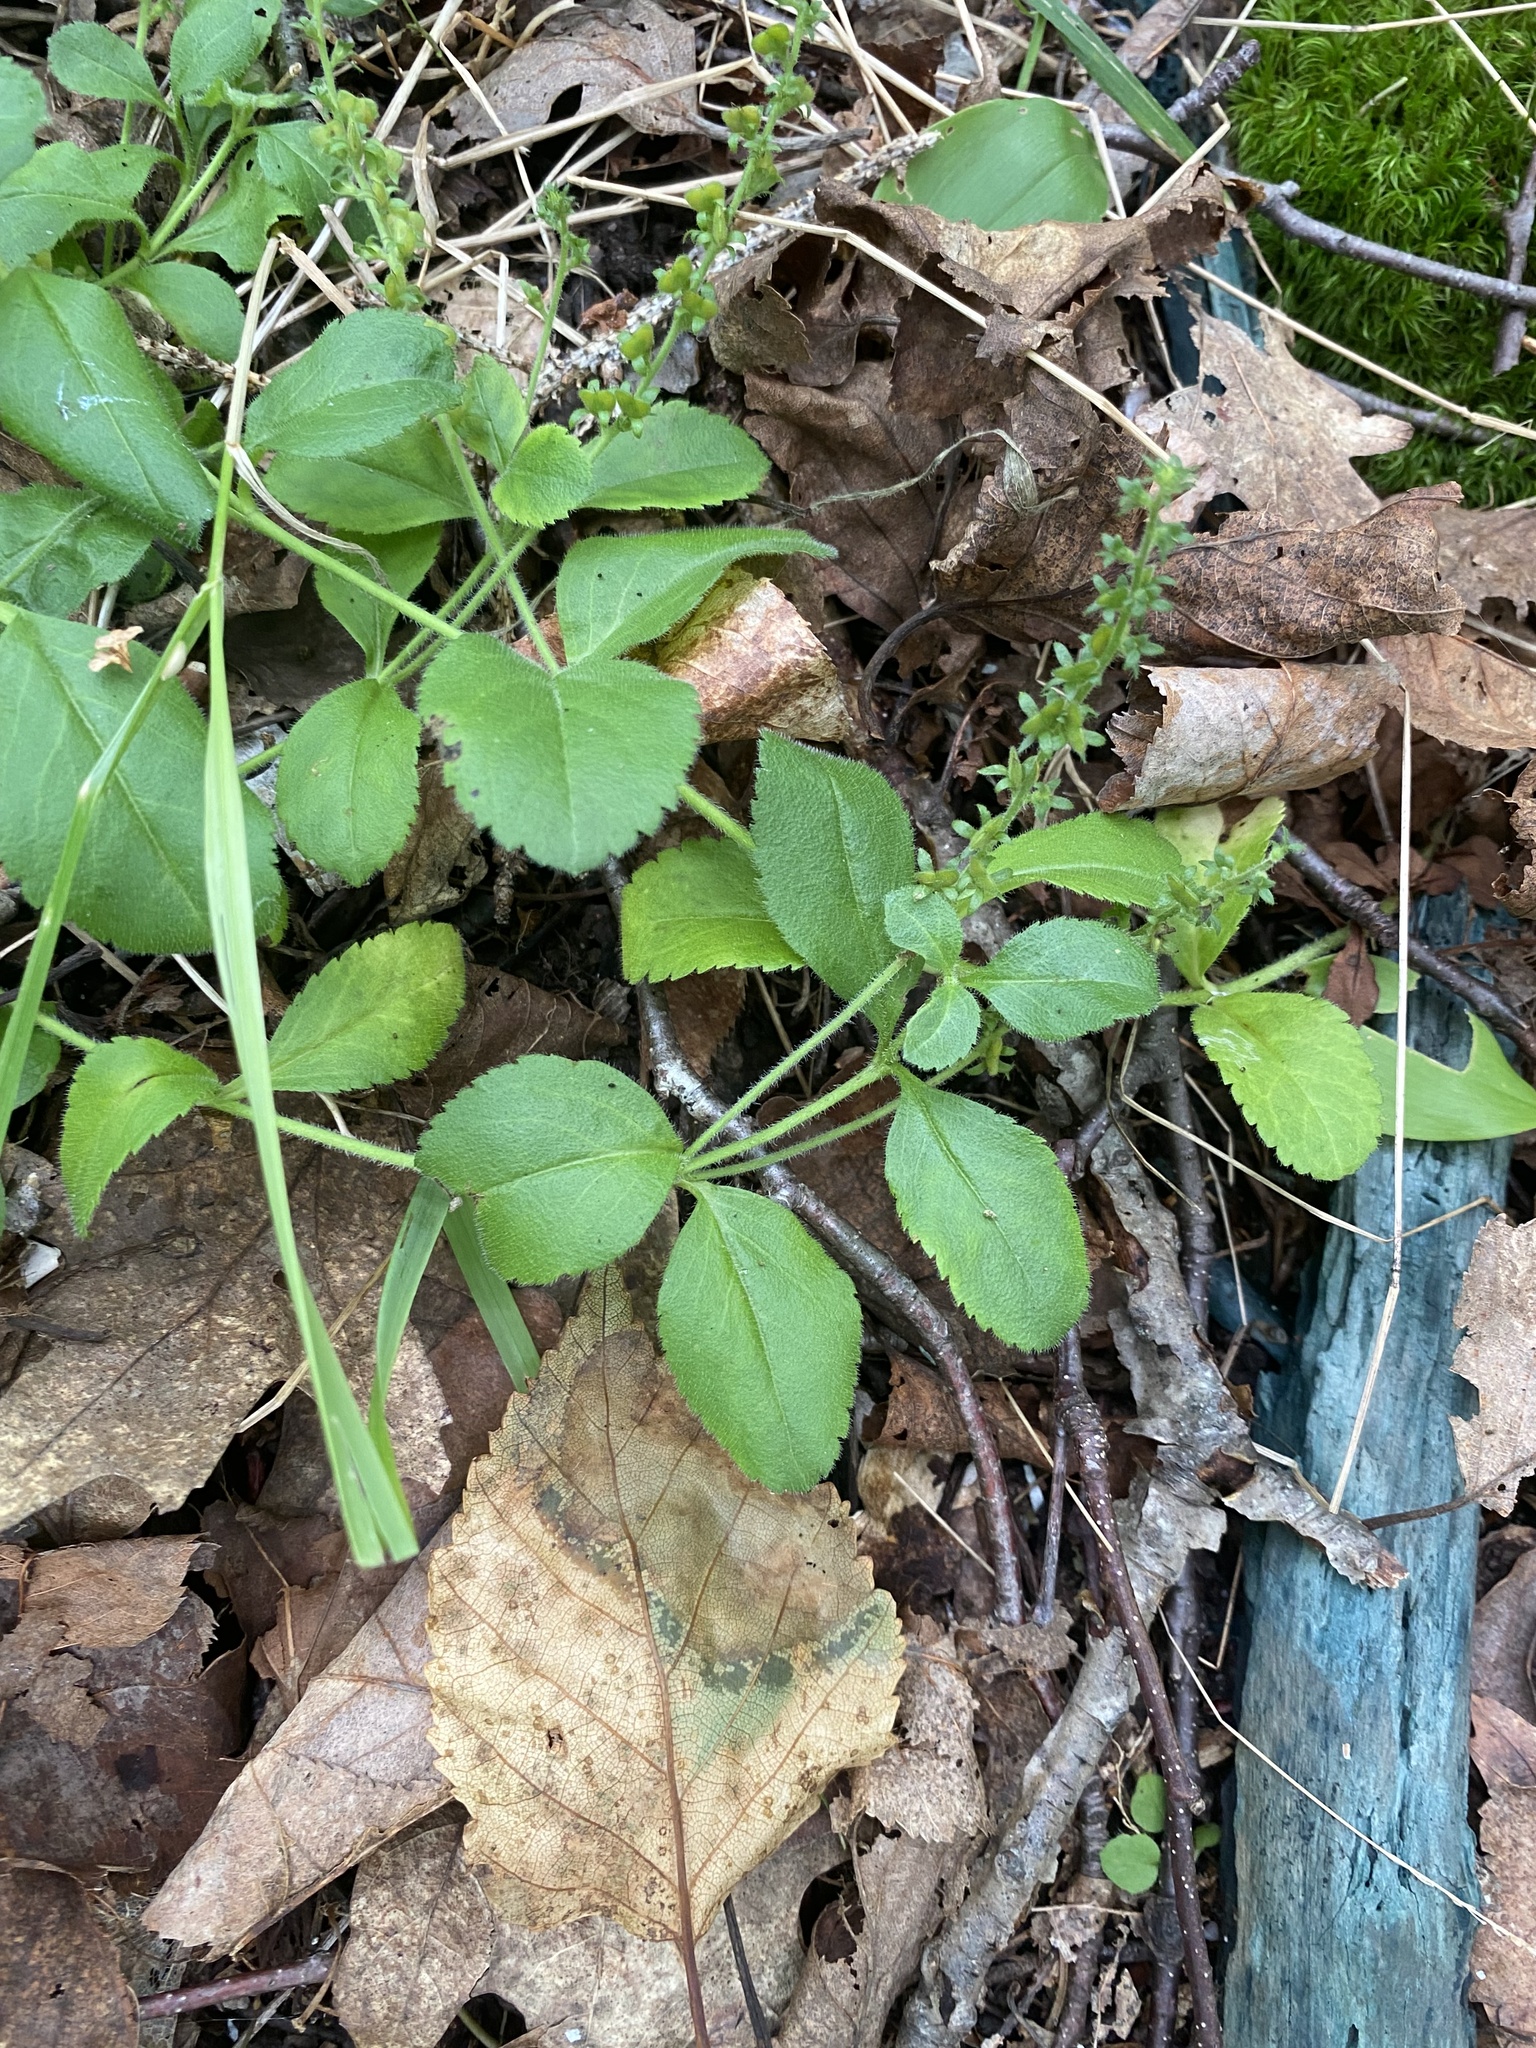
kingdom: Plantae
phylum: Tracheophyta
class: Magnoliopsida
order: Lamiales
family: Plantaginaceae
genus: Veronica
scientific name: Veronica officinalis
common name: Common speedwell
